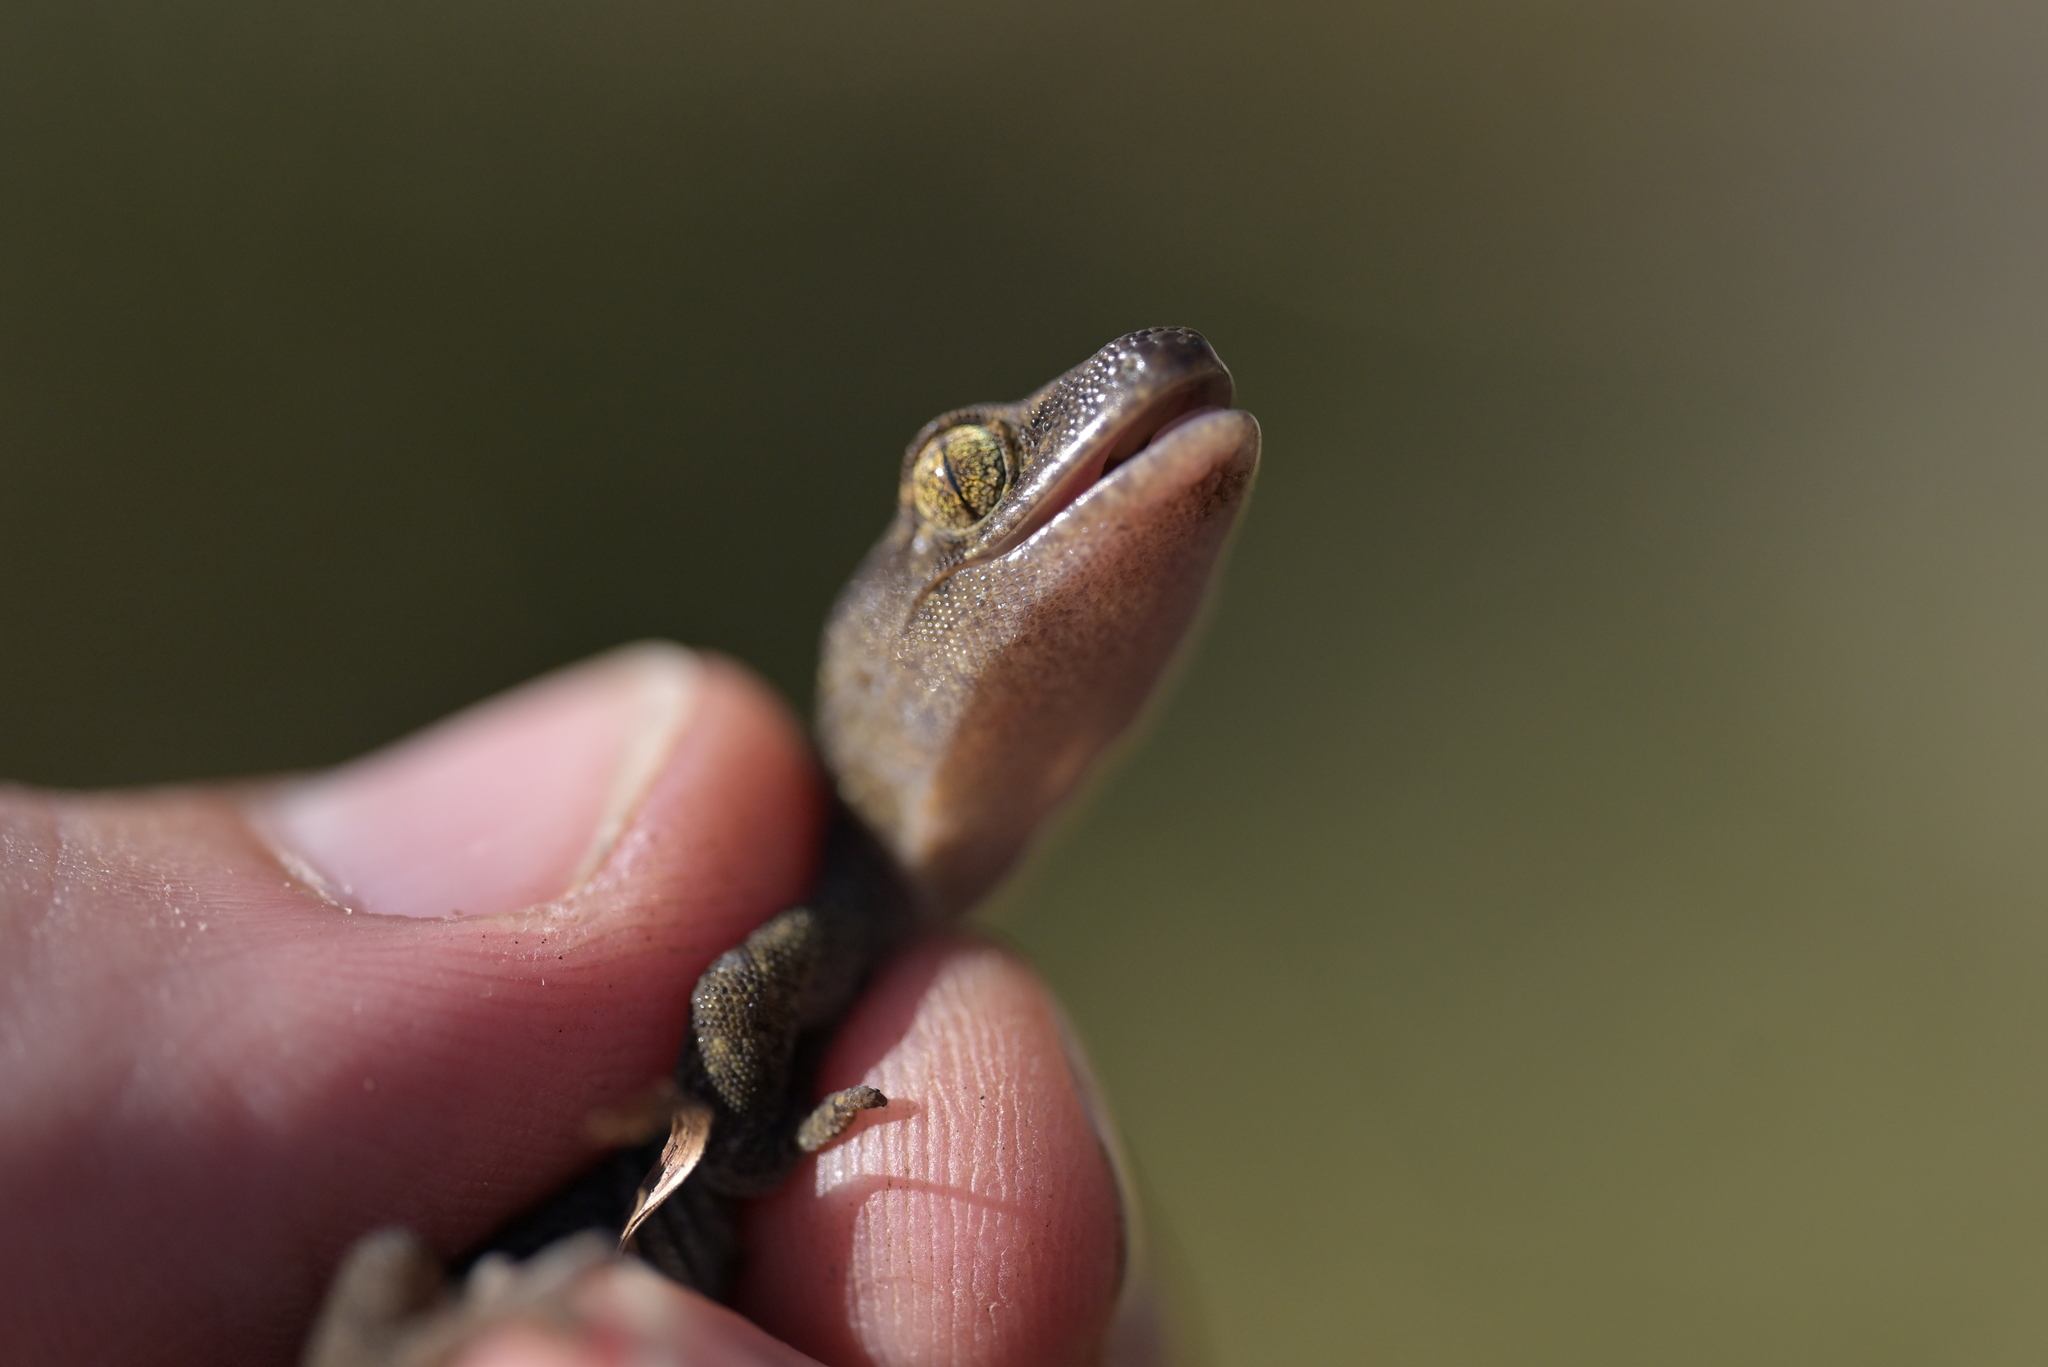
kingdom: Animalia
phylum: Chordata
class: Squamata
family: Diplodactylidae
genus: Woodworthia
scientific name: Woodworthia maculata
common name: Raukawa gecko
